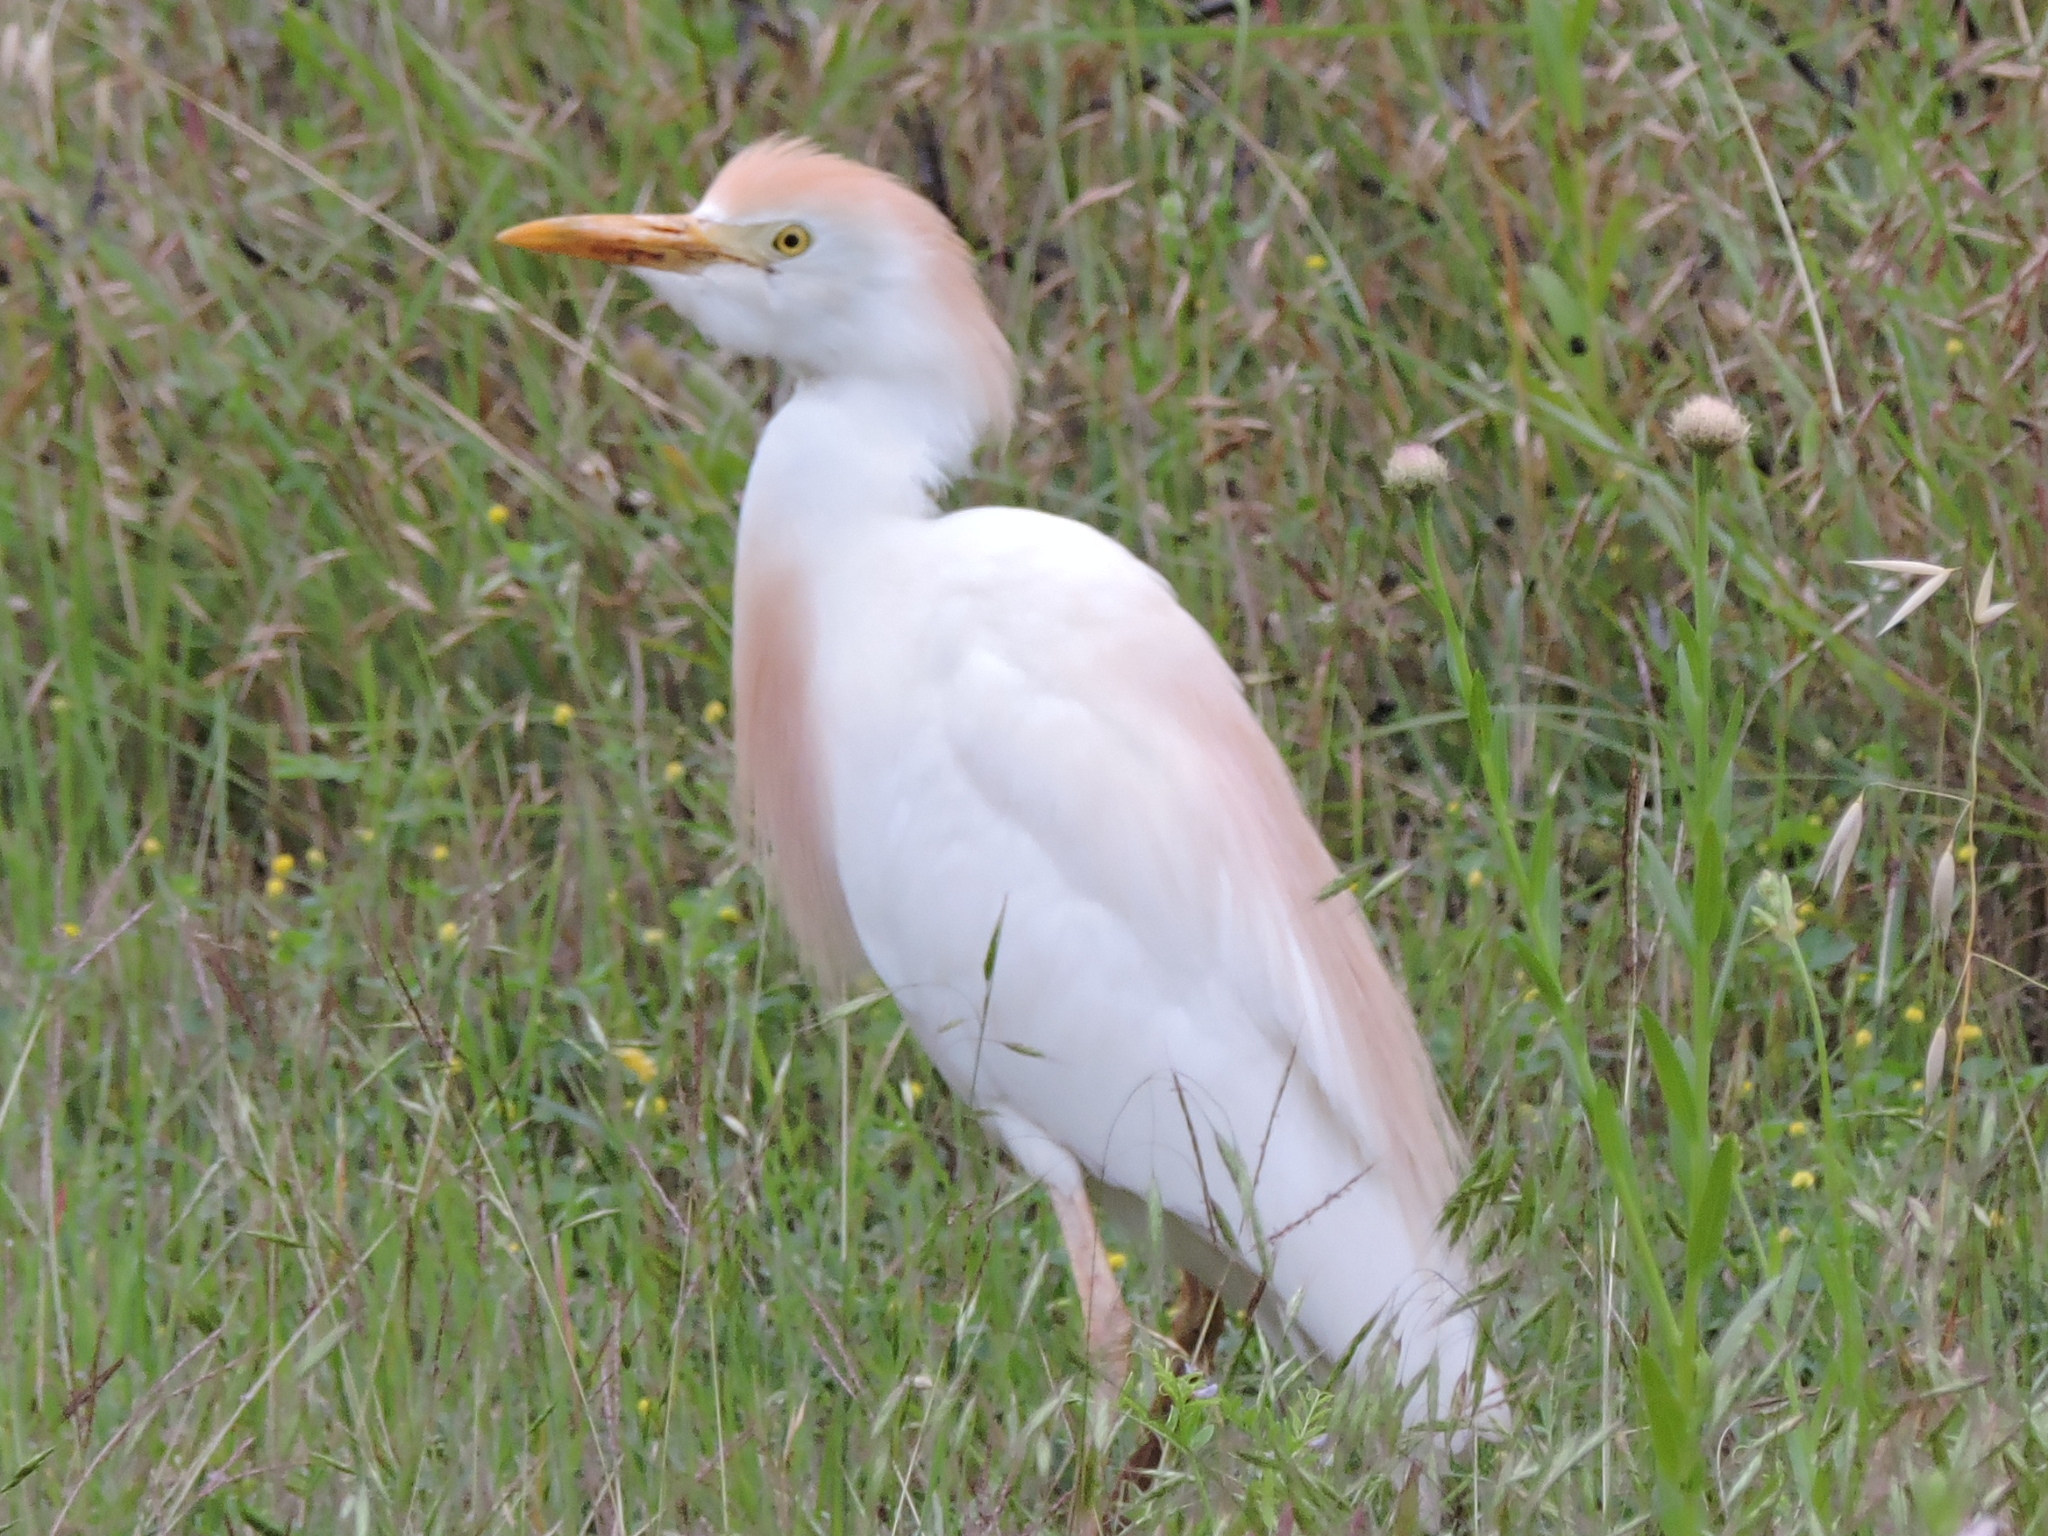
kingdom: Animalia
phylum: Chordata
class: Aves
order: Pelecaniformes
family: Ardeidae
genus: Bubulcus
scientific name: Bubulcus ibis
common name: Cattle egret
